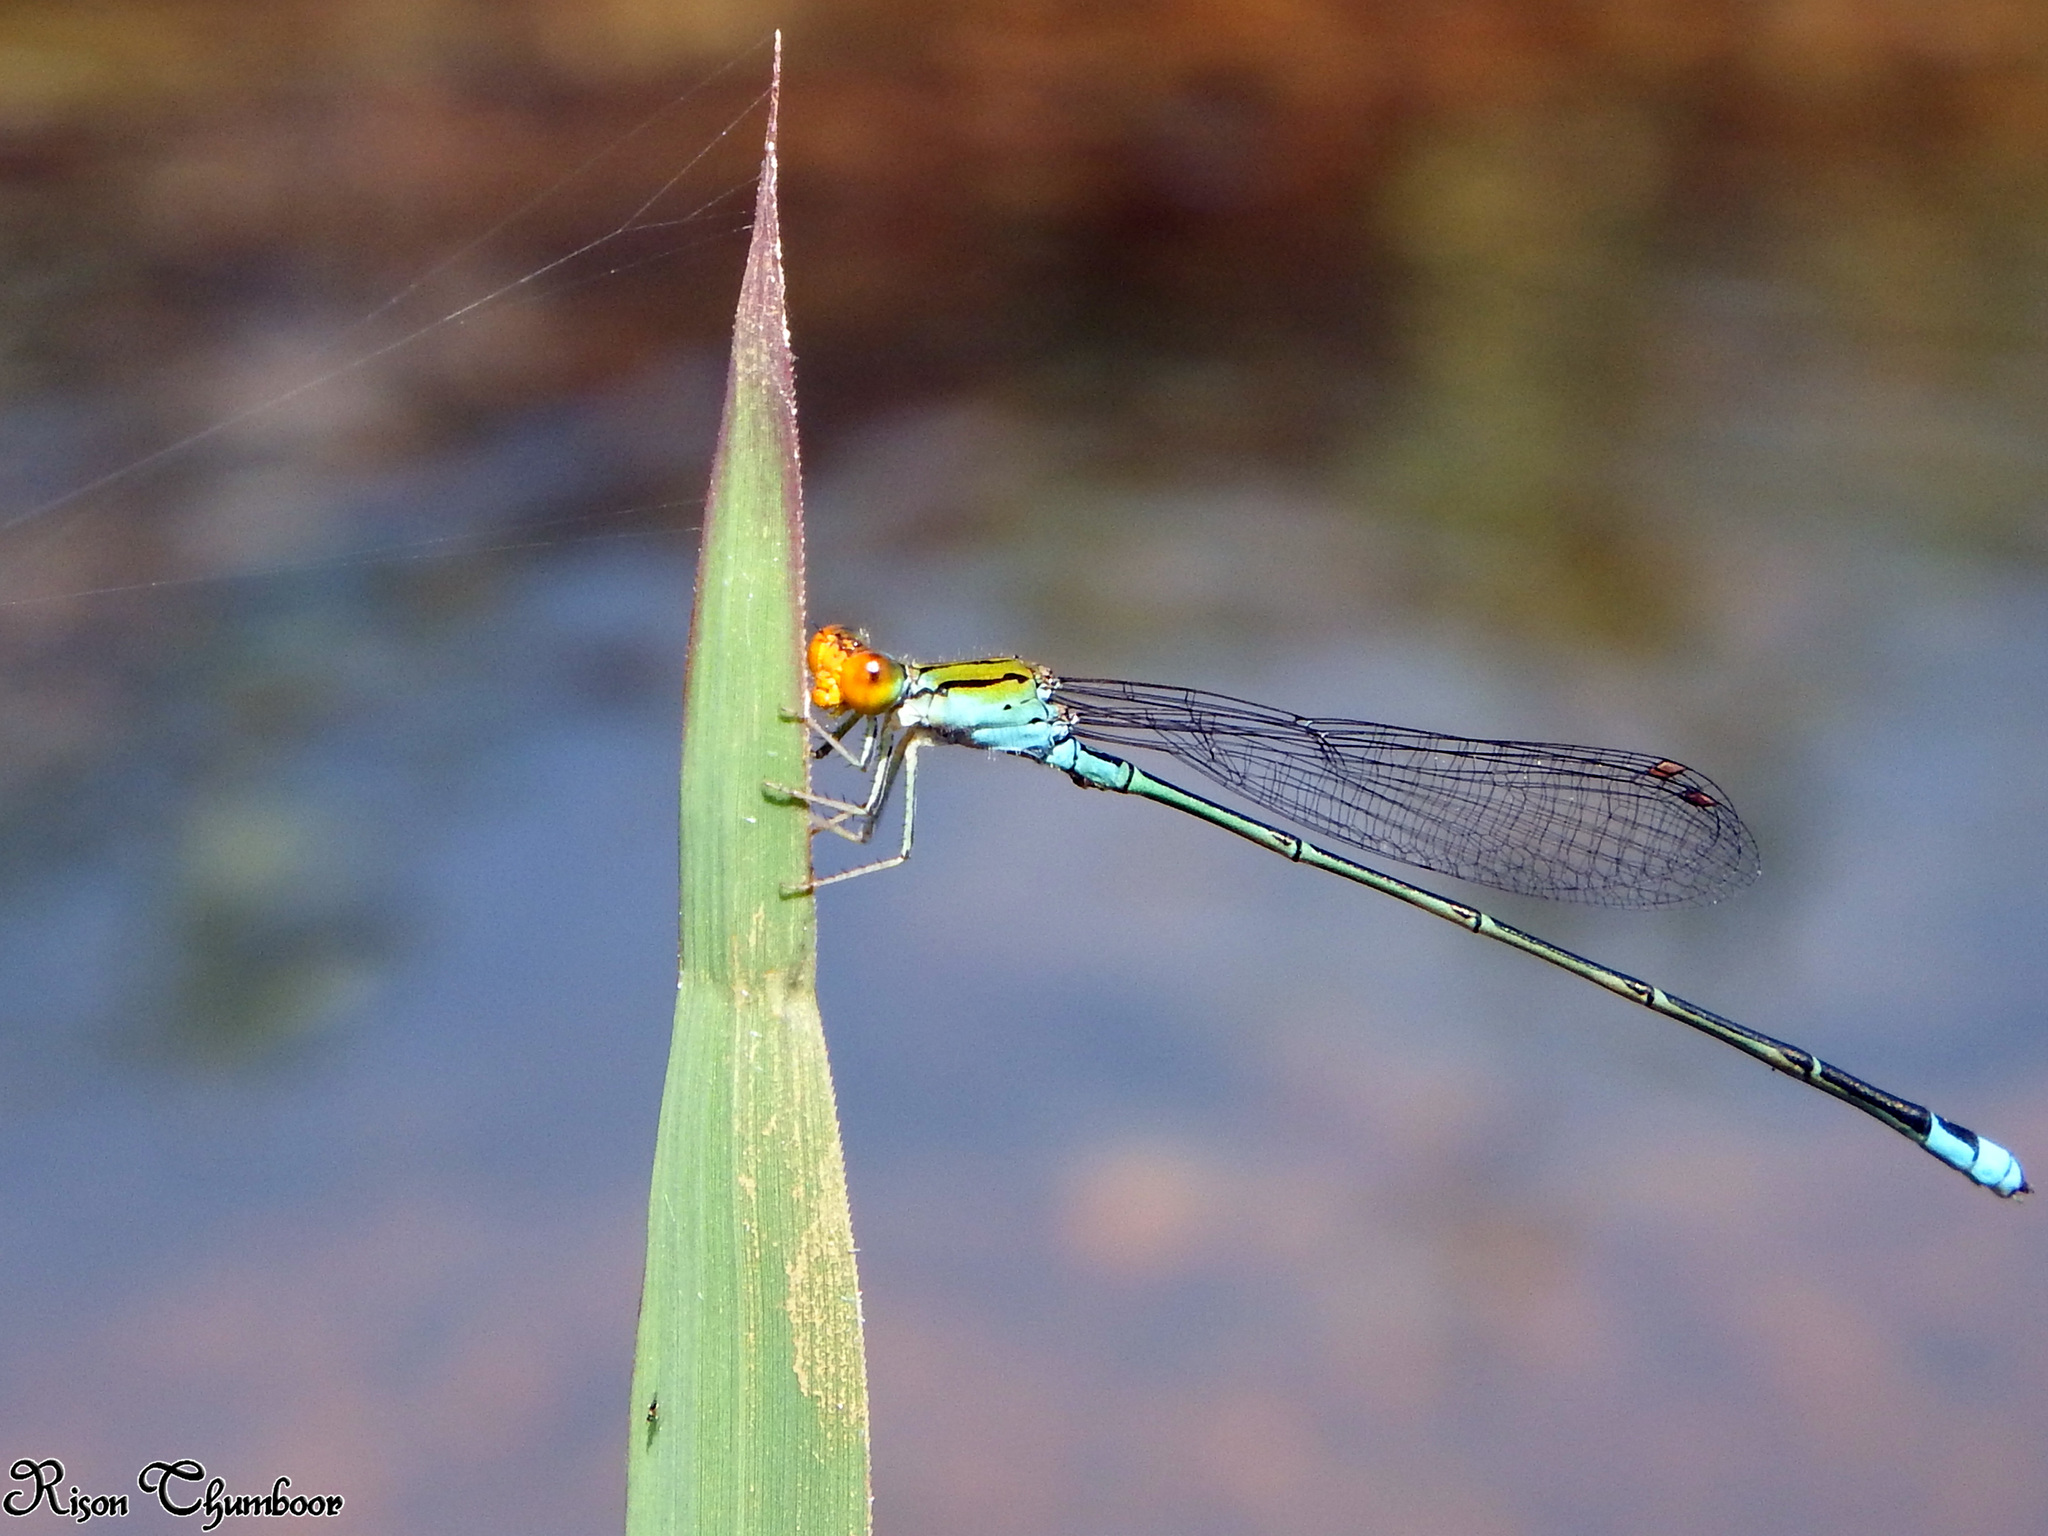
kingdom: Animalia
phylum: Arthropoda
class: Insecta
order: Odonata
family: Coenagrionidae
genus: Pseudagrion
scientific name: Pseudagrion rubriceps
